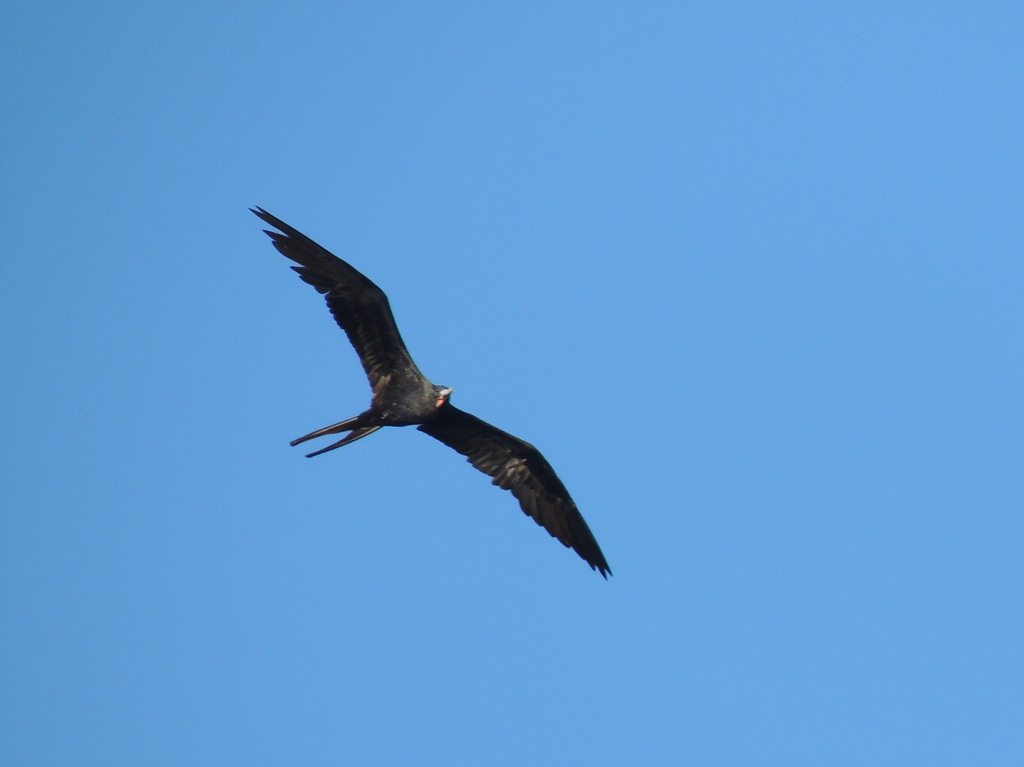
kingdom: Animalia
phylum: Chordata
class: Aves
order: Suliformes
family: Fregatidae
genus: Fregata
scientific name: Fregata magnificens
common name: Magnificent frigatebird
